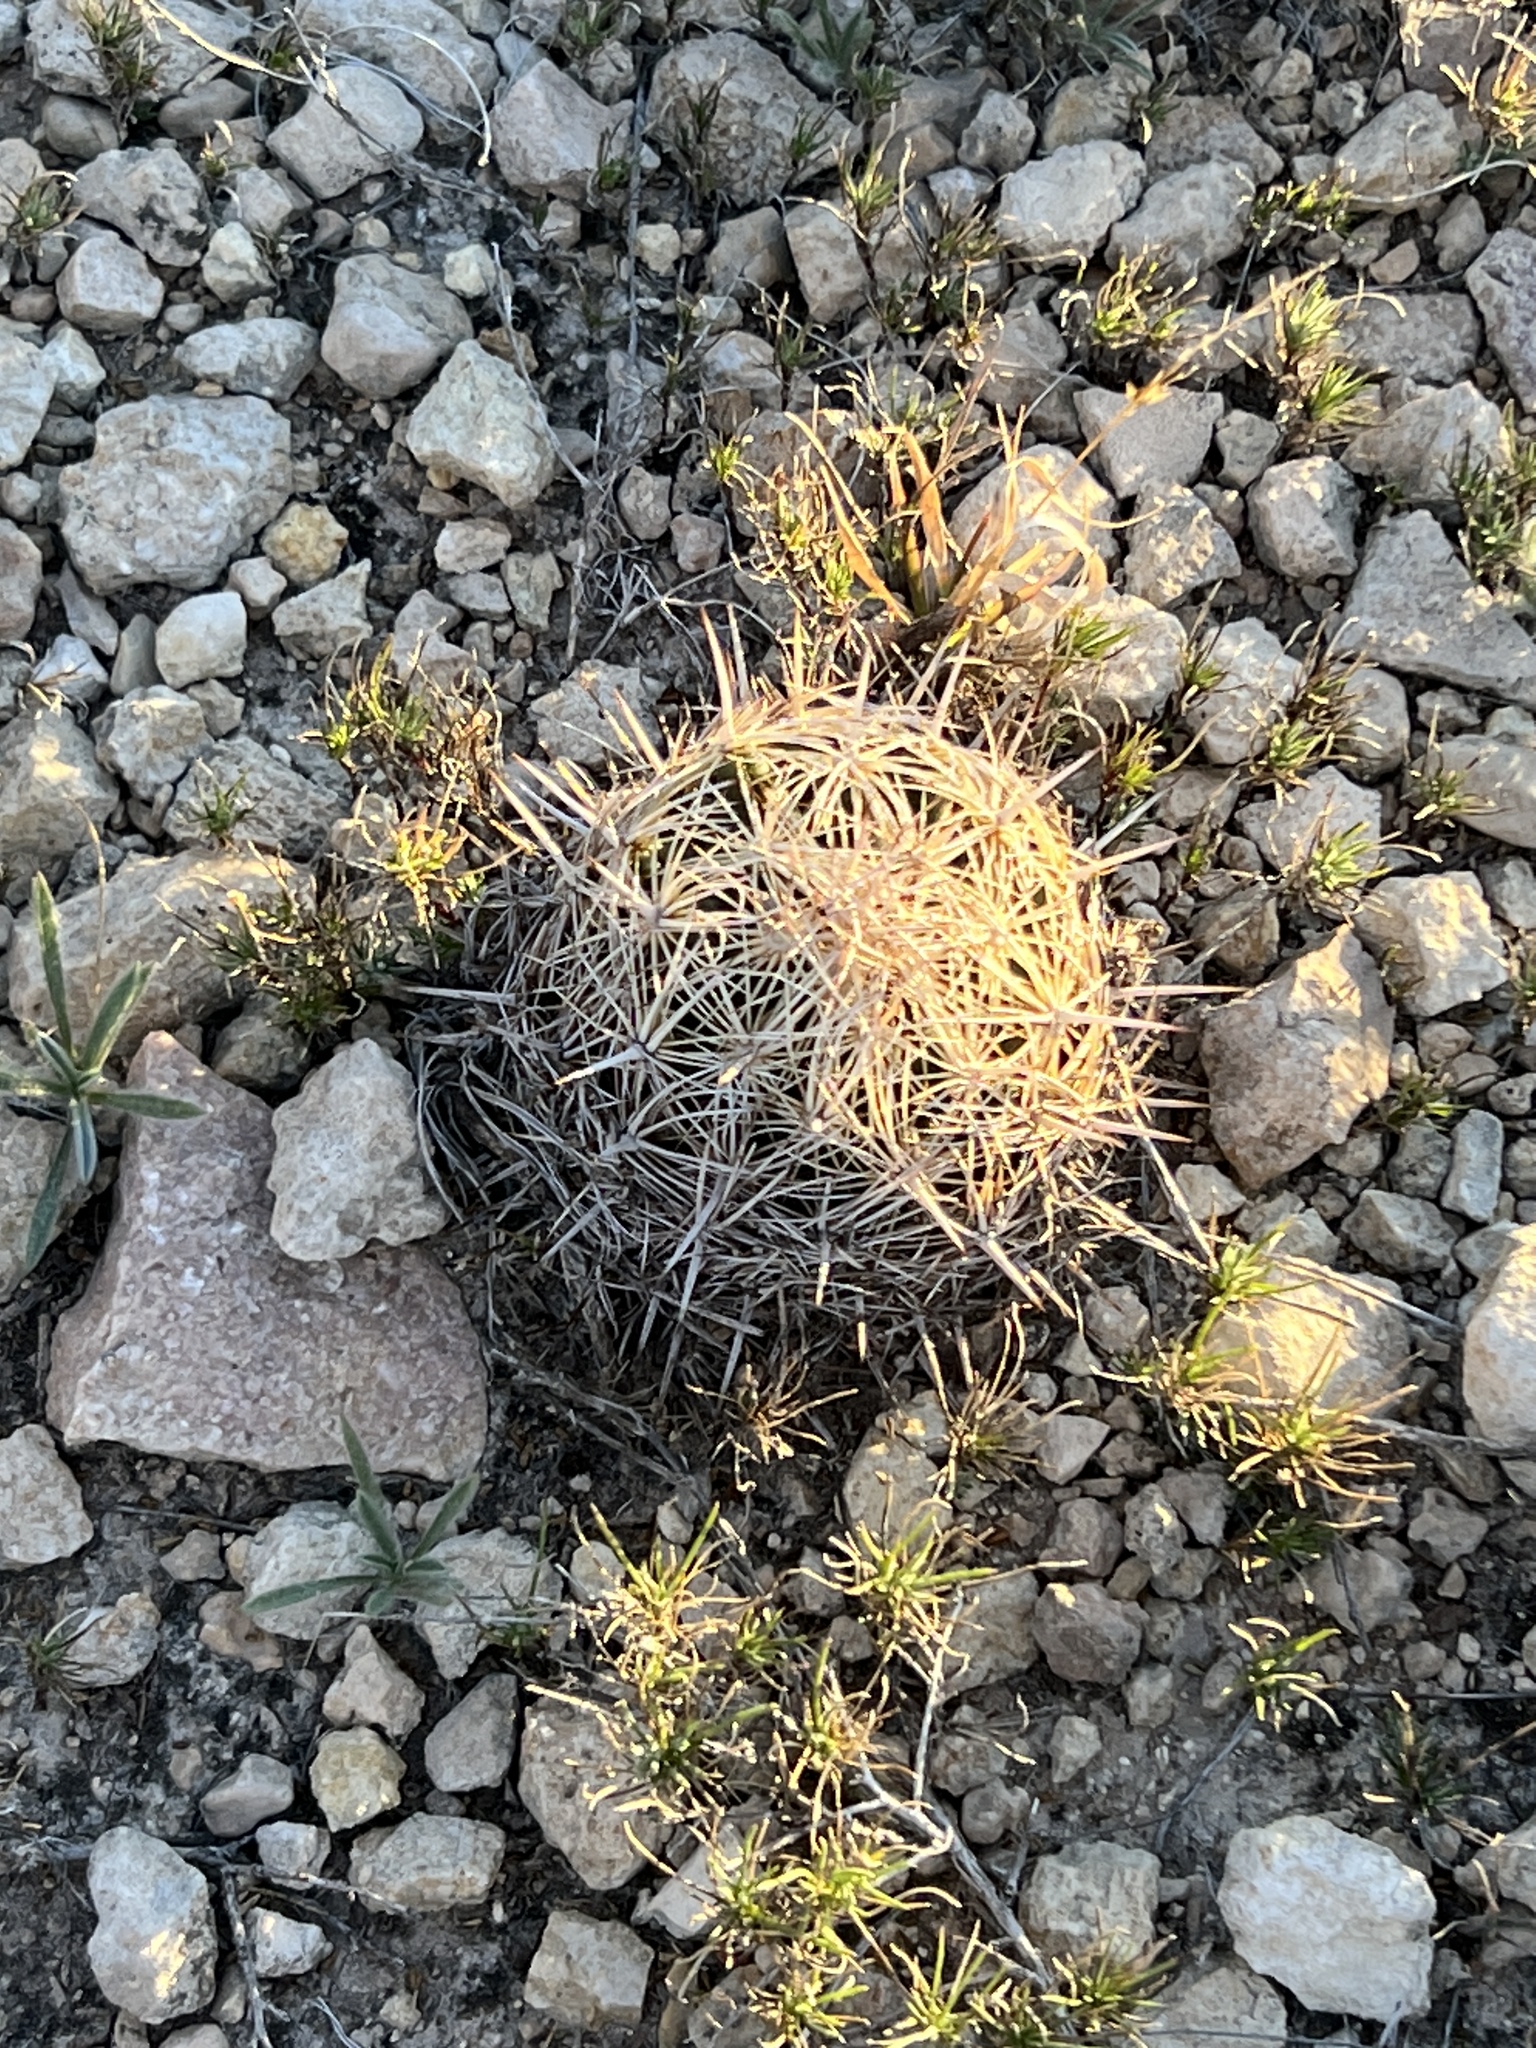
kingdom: Plantae
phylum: Tracheophyta
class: Magnoliopsida
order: Caryophyllales
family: Cactaceae
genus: Coryphantha
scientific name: Coryphantha echinus
